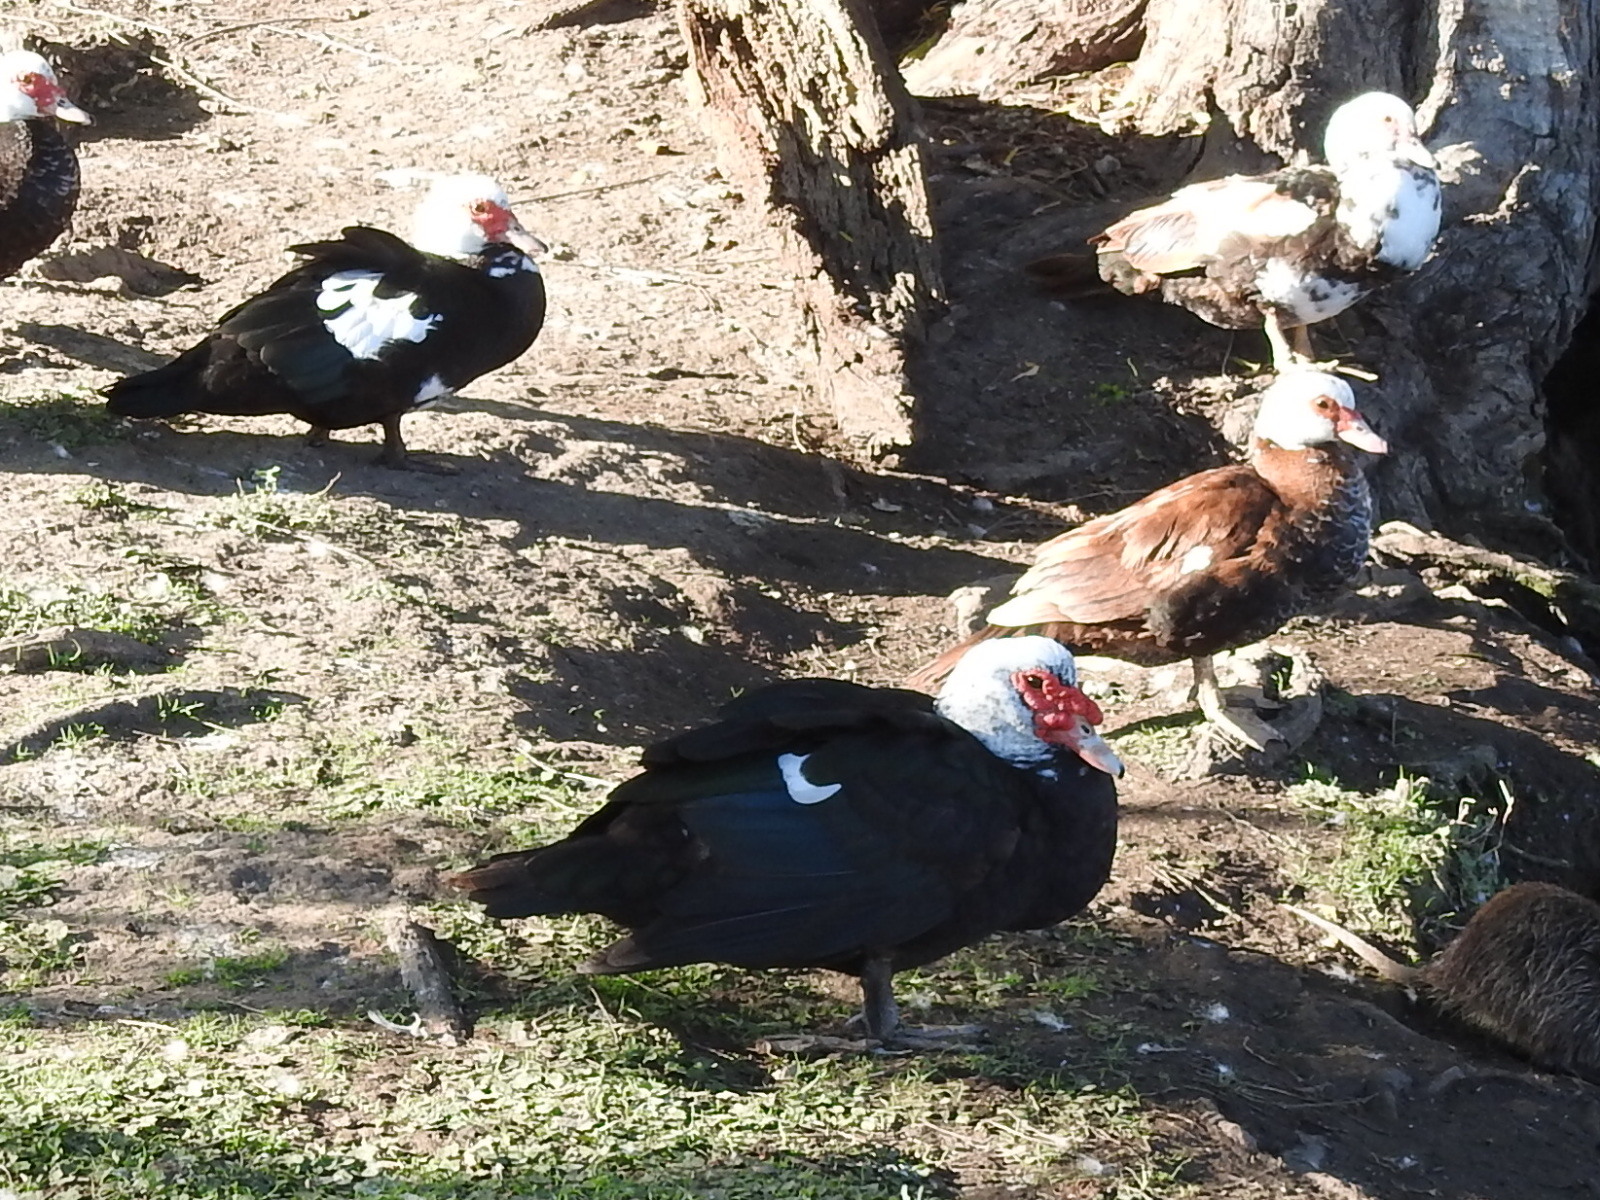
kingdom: Animalia
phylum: Chordata
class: Aves
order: Anseriformes
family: Anatidae
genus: Cairina
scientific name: Cairina moschata
